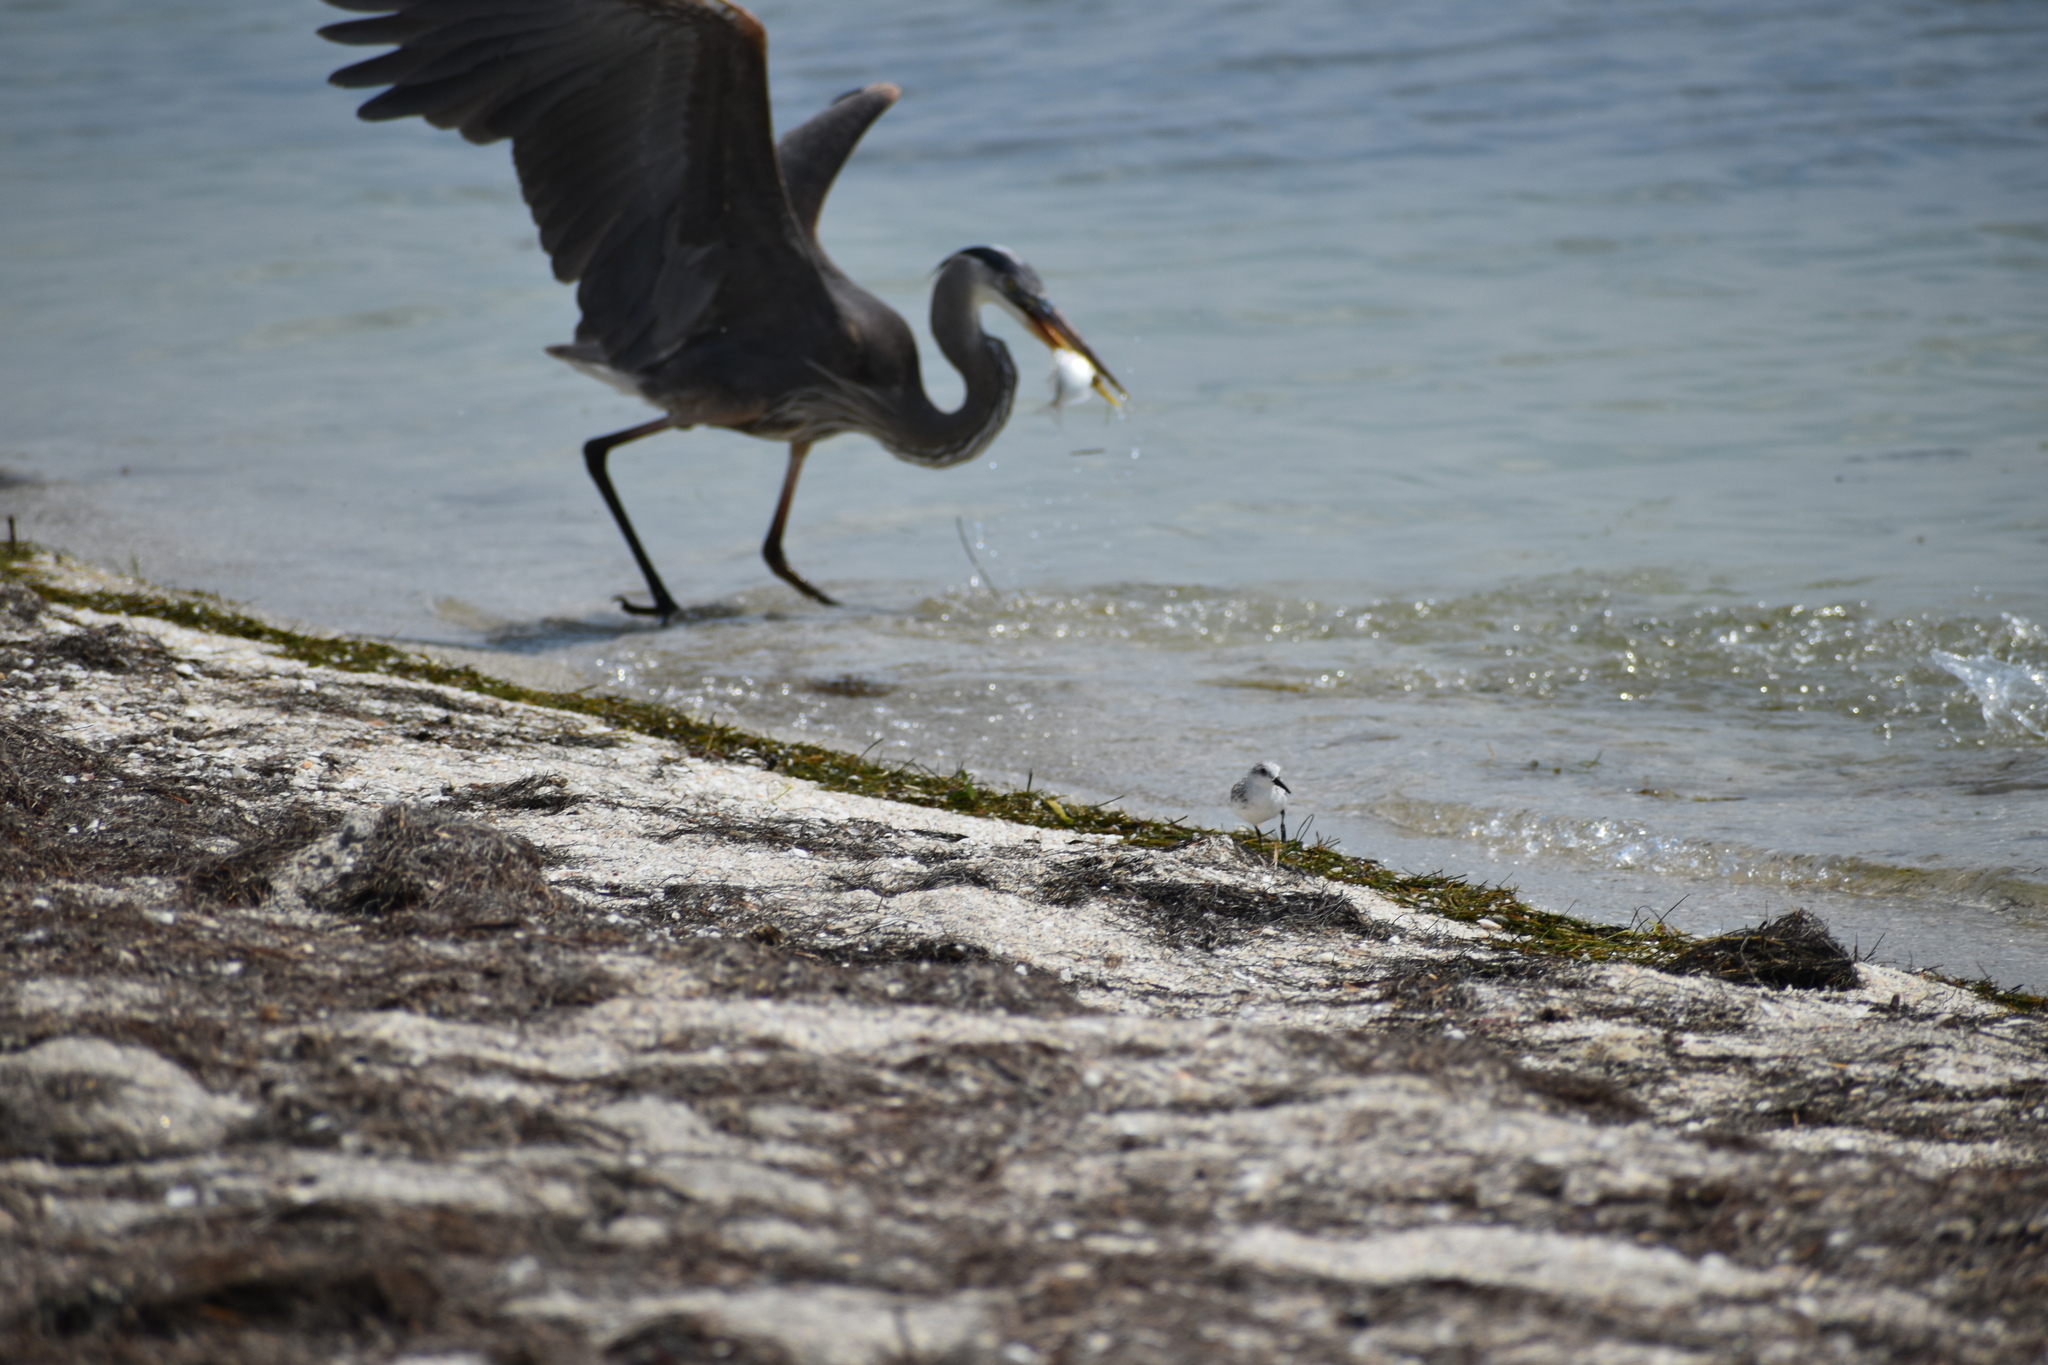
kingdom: Animalia
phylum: Chordata
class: Aves
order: Pelecaniformes
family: Ardeidae
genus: Ardea
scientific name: Ardea herodias
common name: Great blue heron
